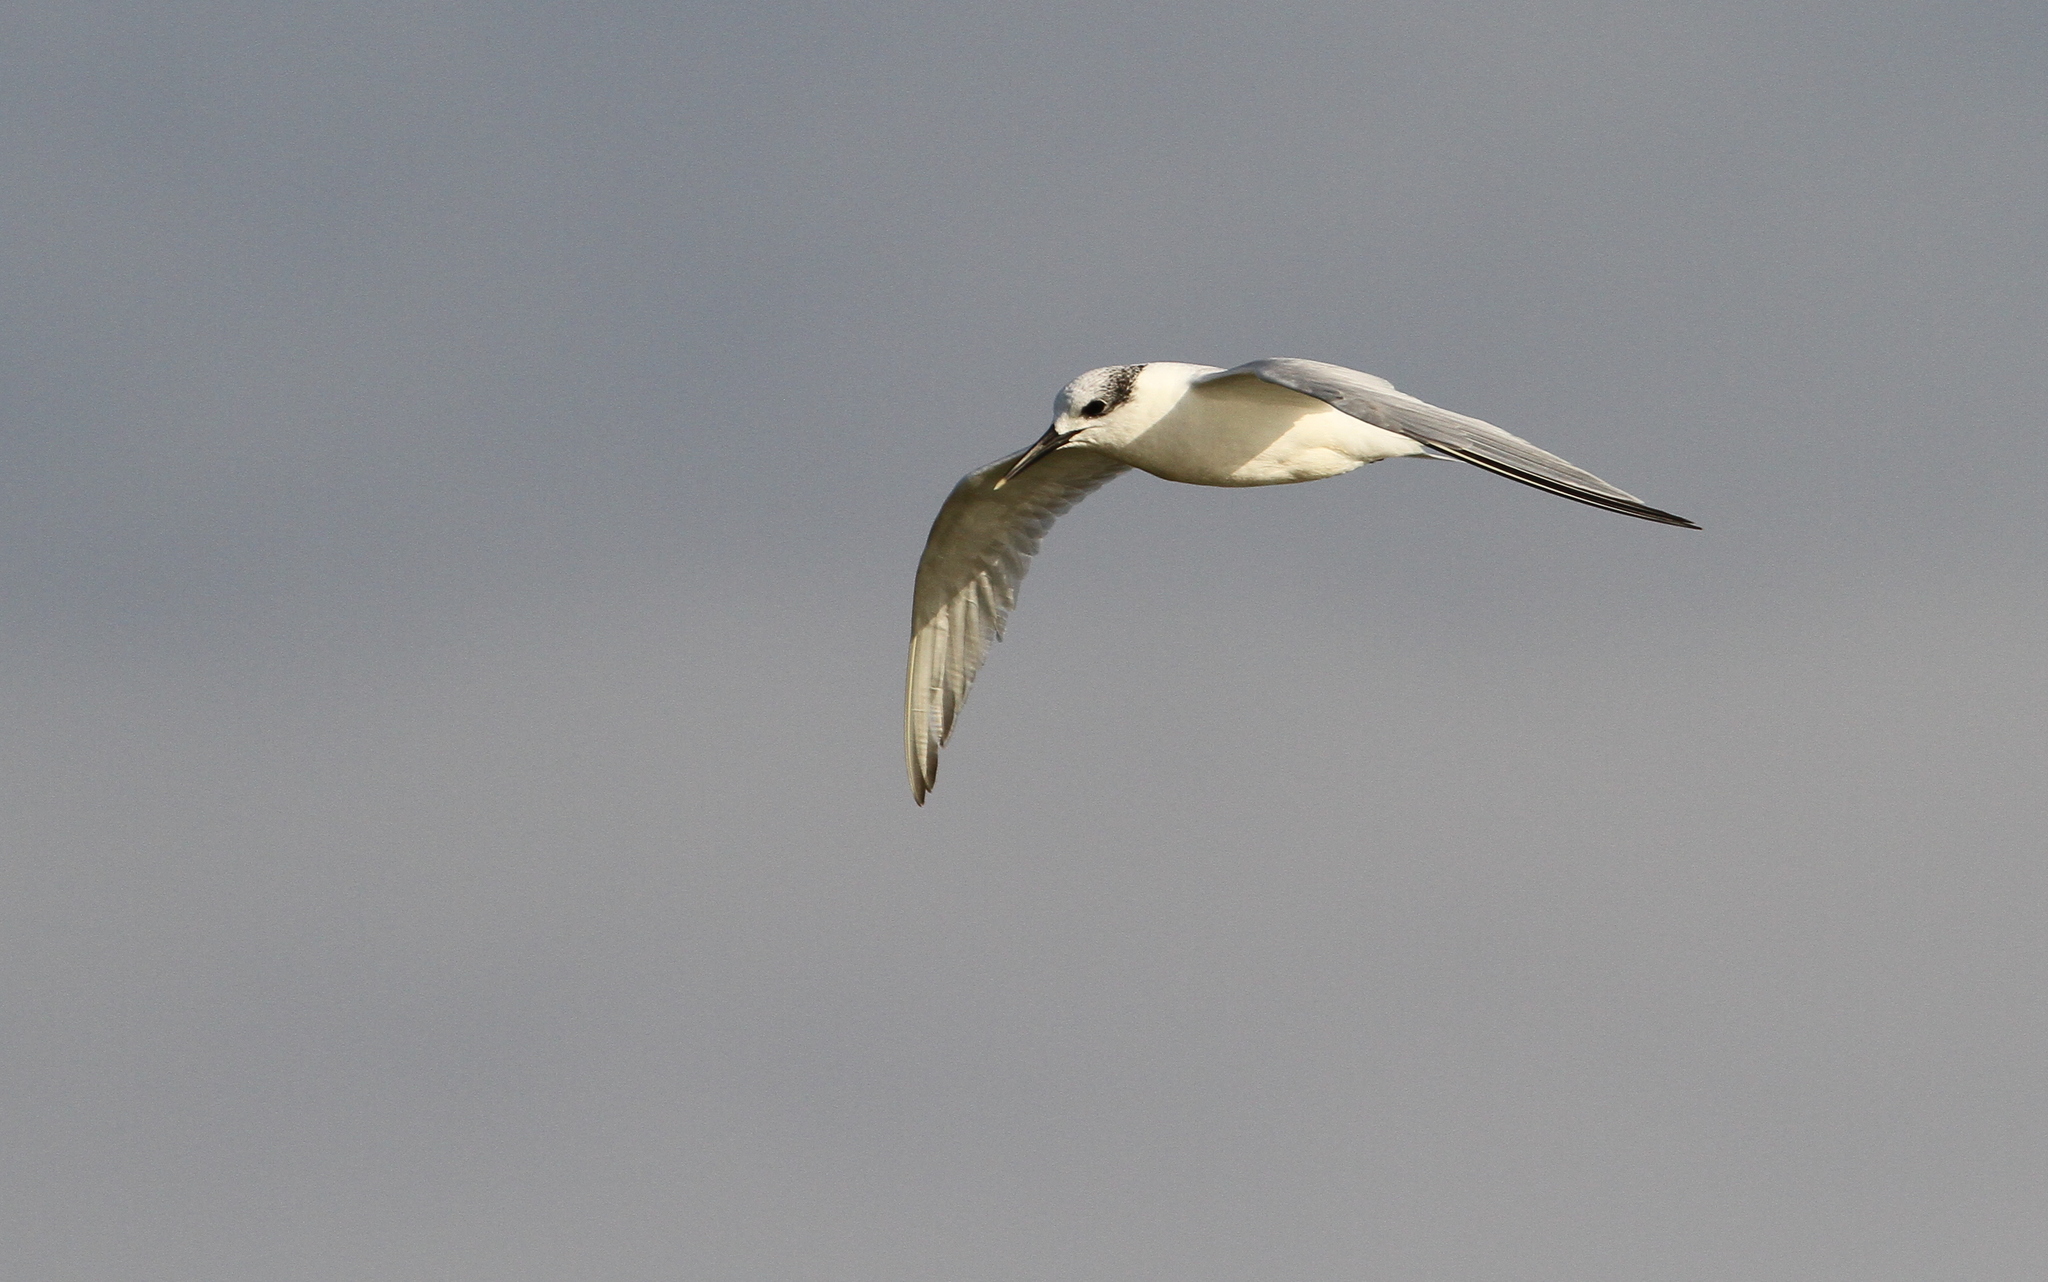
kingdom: Animalia
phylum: Chordata
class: Aves
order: Charadriiformes
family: Laridae
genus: Thalasseus
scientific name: Thalasseus sandvicensis
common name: Sandwich tern
